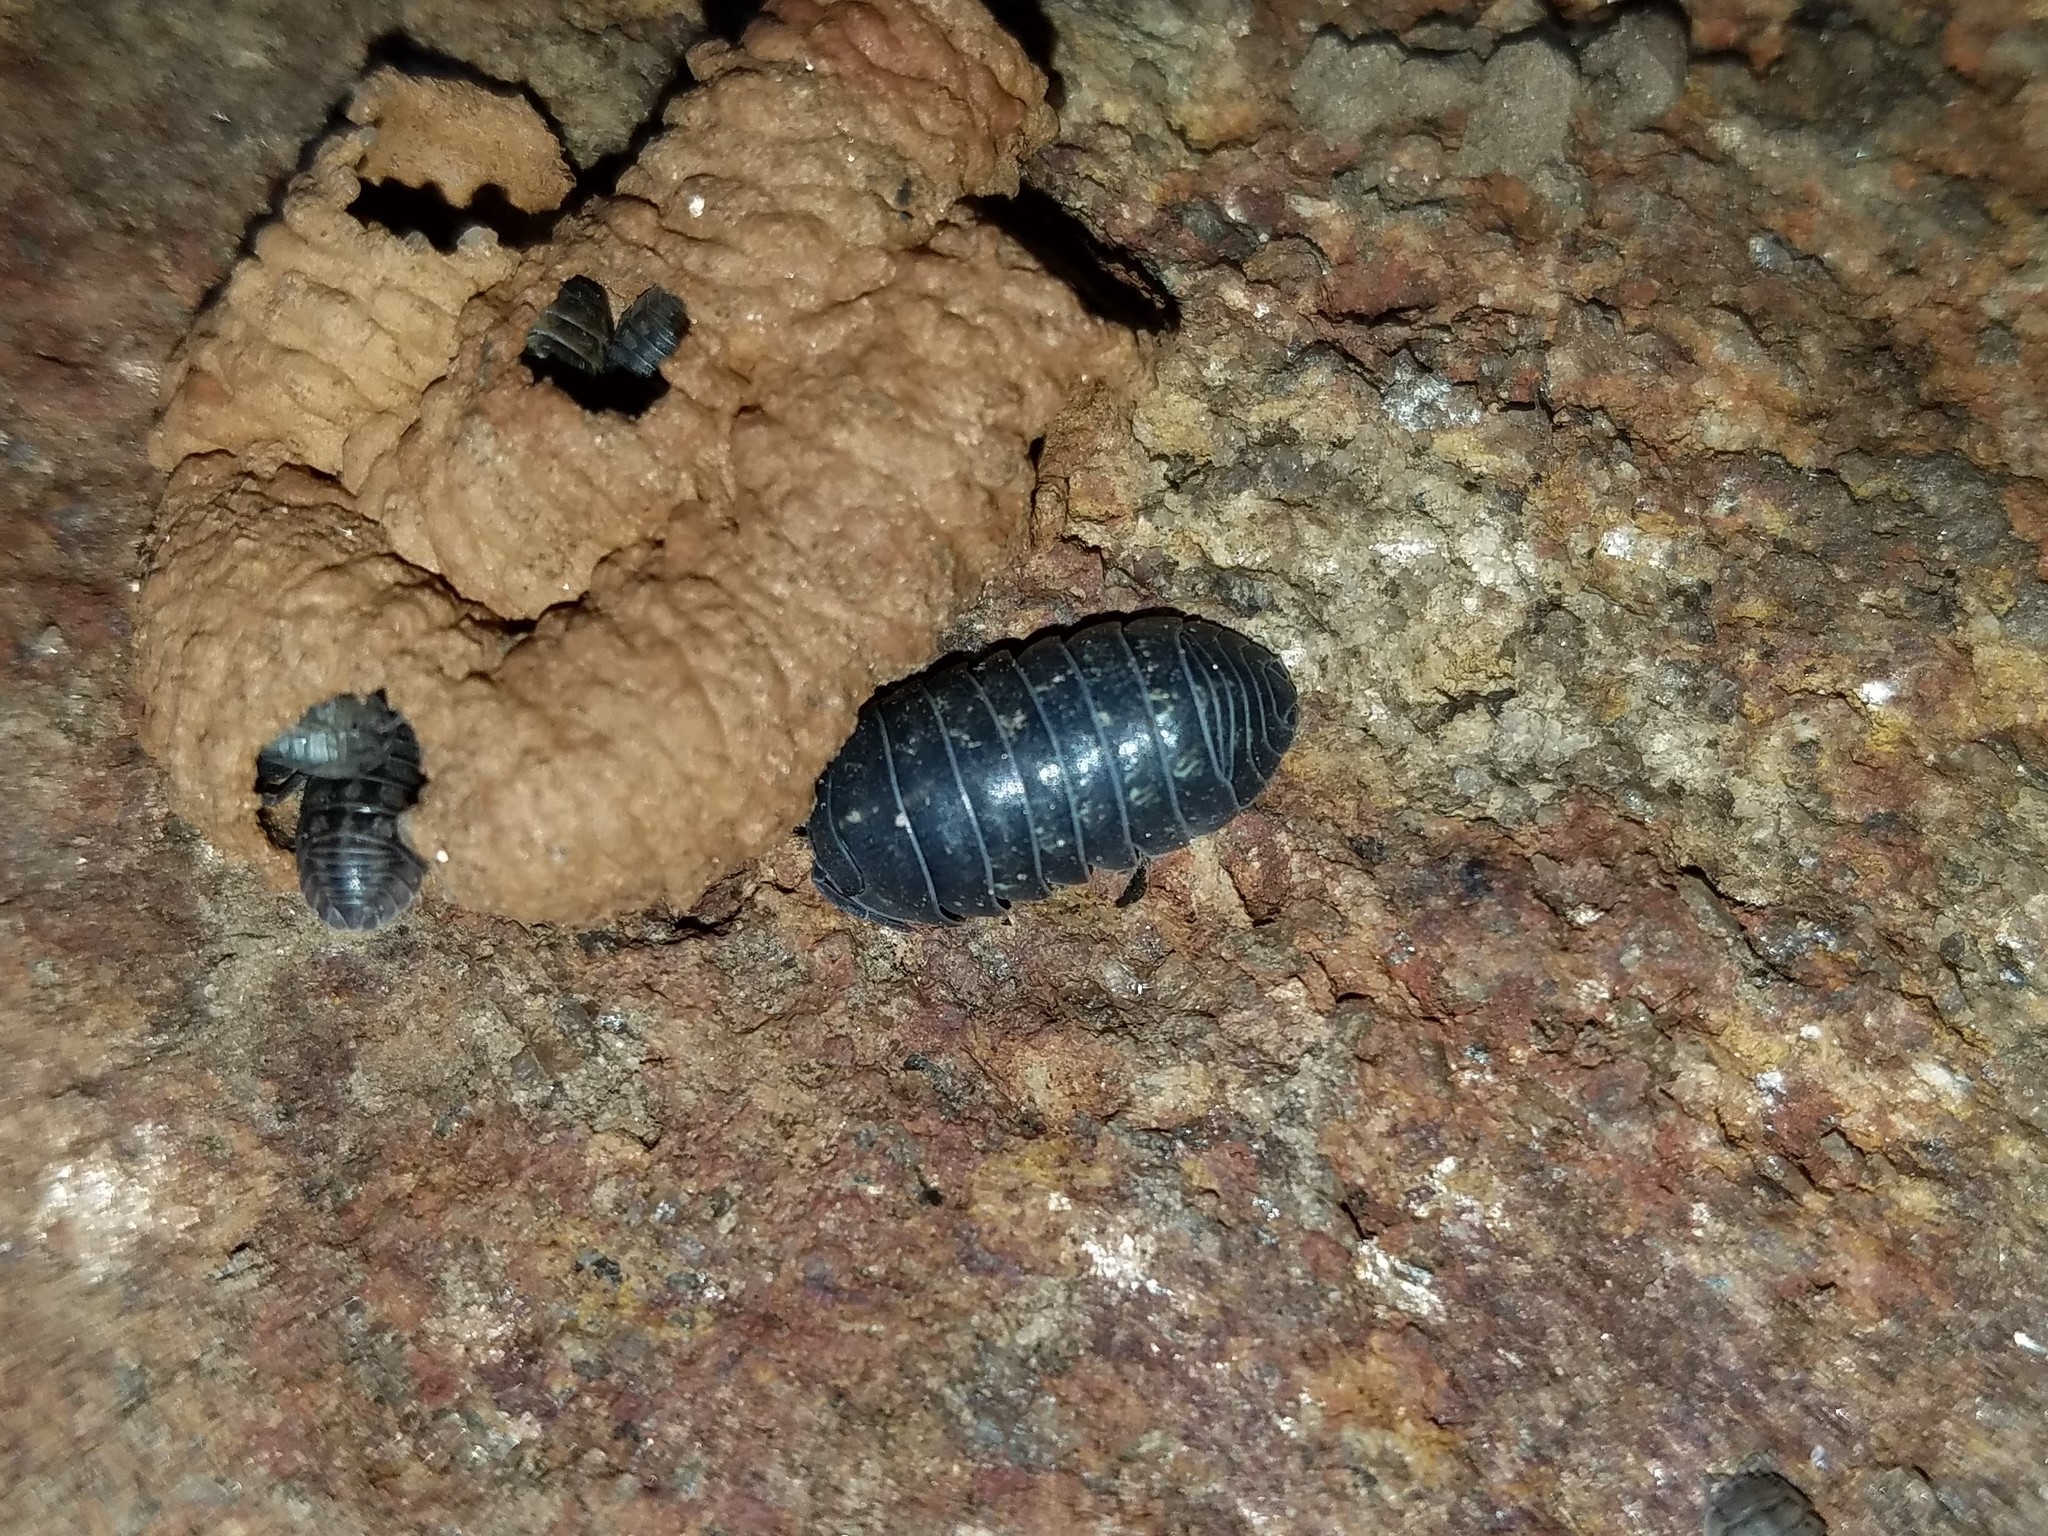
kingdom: Animalia
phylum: Arthropoda
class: Malacostraca
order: Isopoda
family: Armadillidiidae
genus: Armadillidium
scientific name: Armadillidium vulgare
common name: Common pill woodlouse
